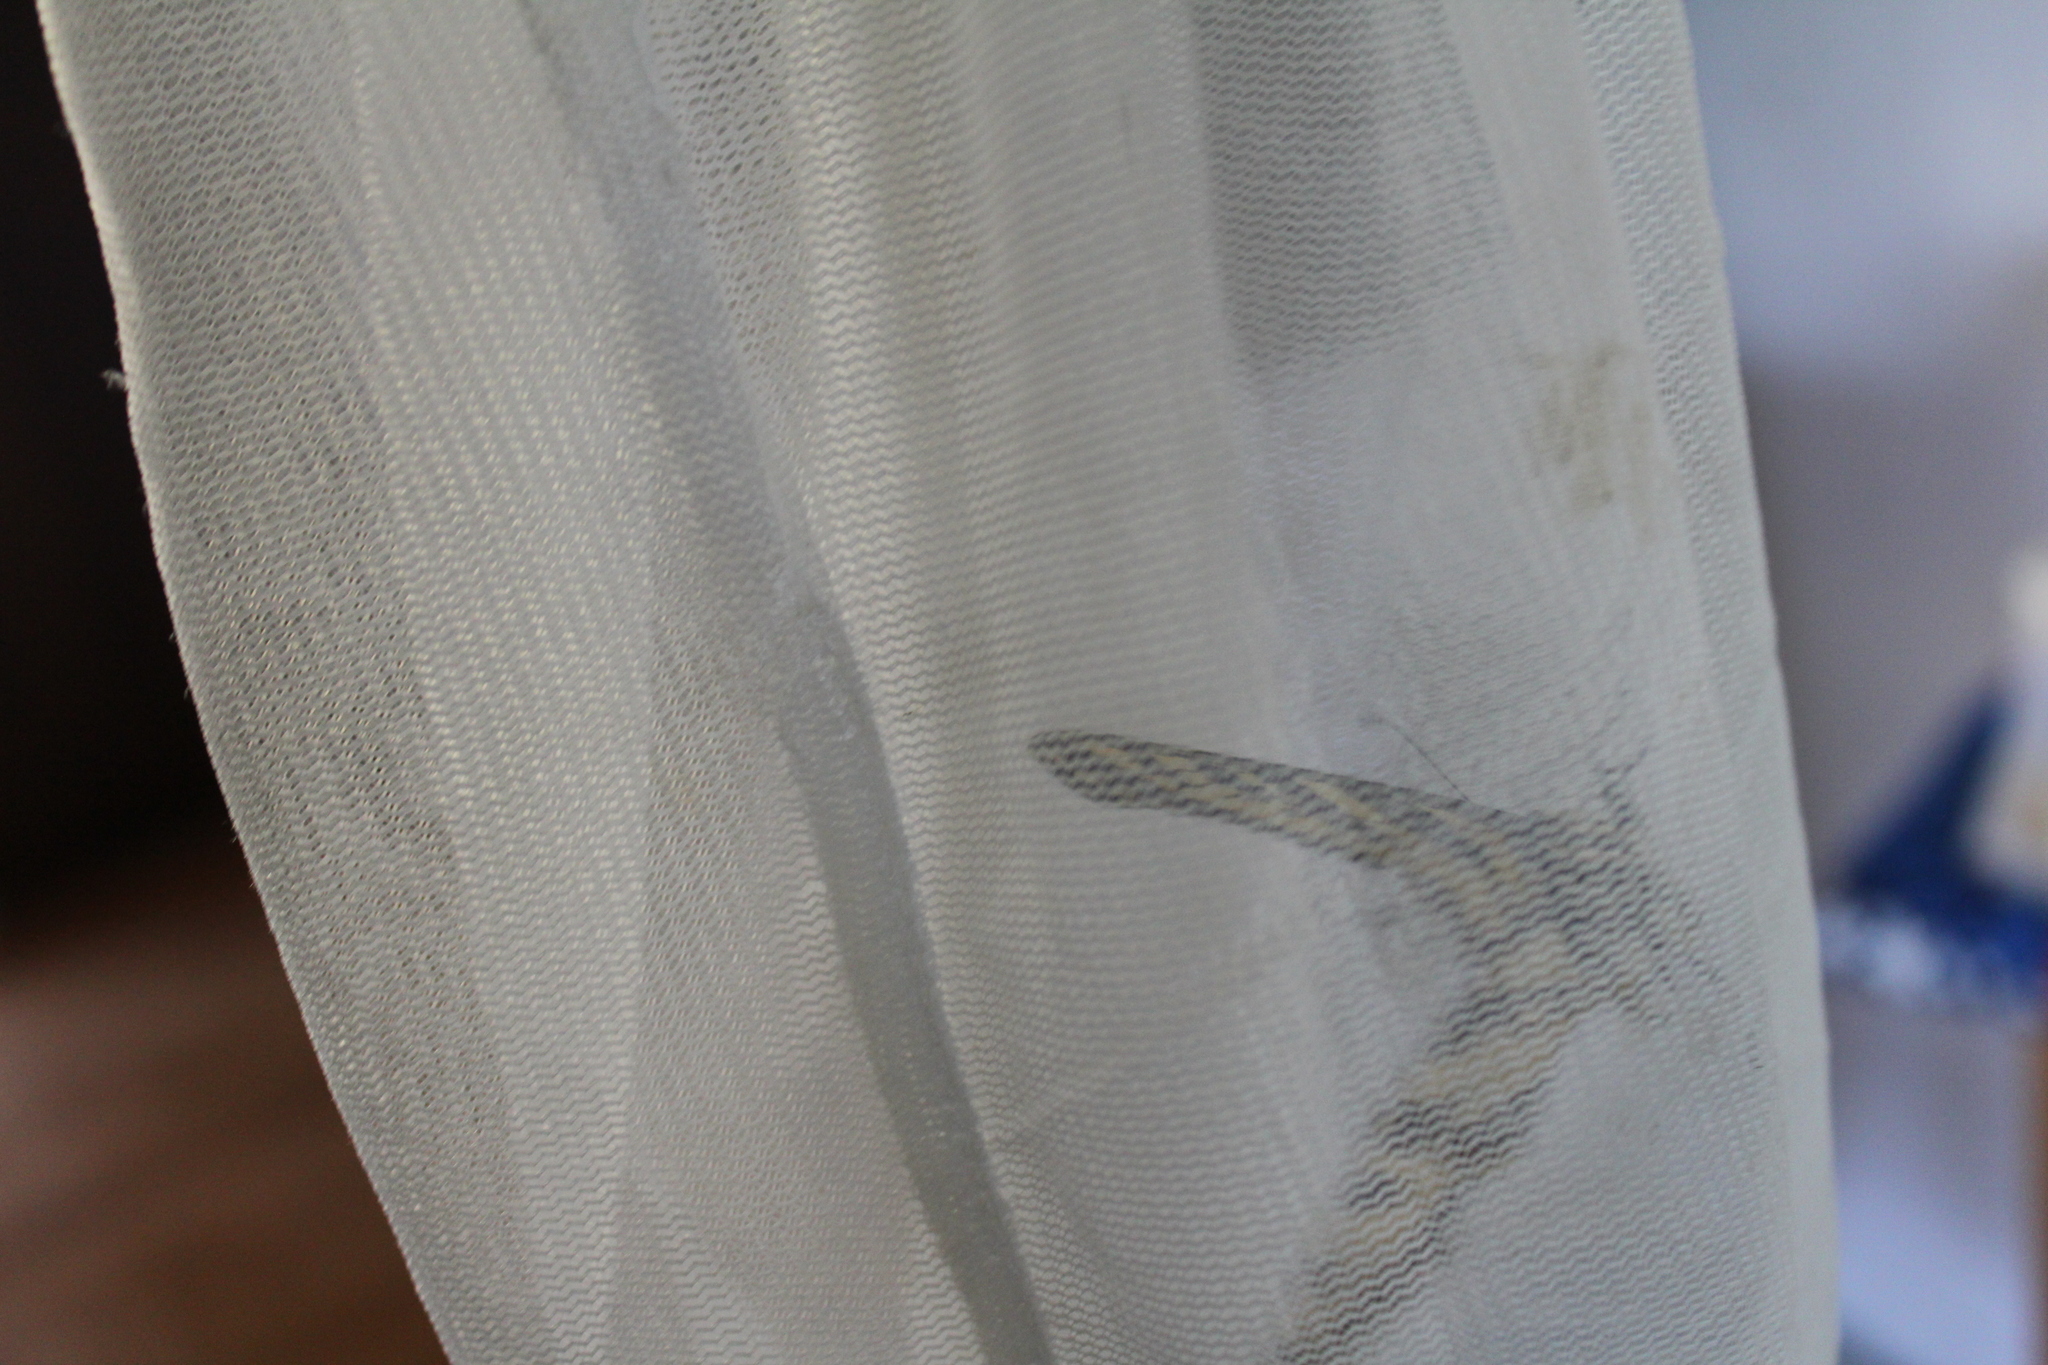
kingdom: Animalia
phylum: Arthropoda
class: Insecta
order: Lepidoptera
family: Papilionidae
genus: Papilio
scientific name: Papilio rutulus
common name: Western tiger swallowtail
